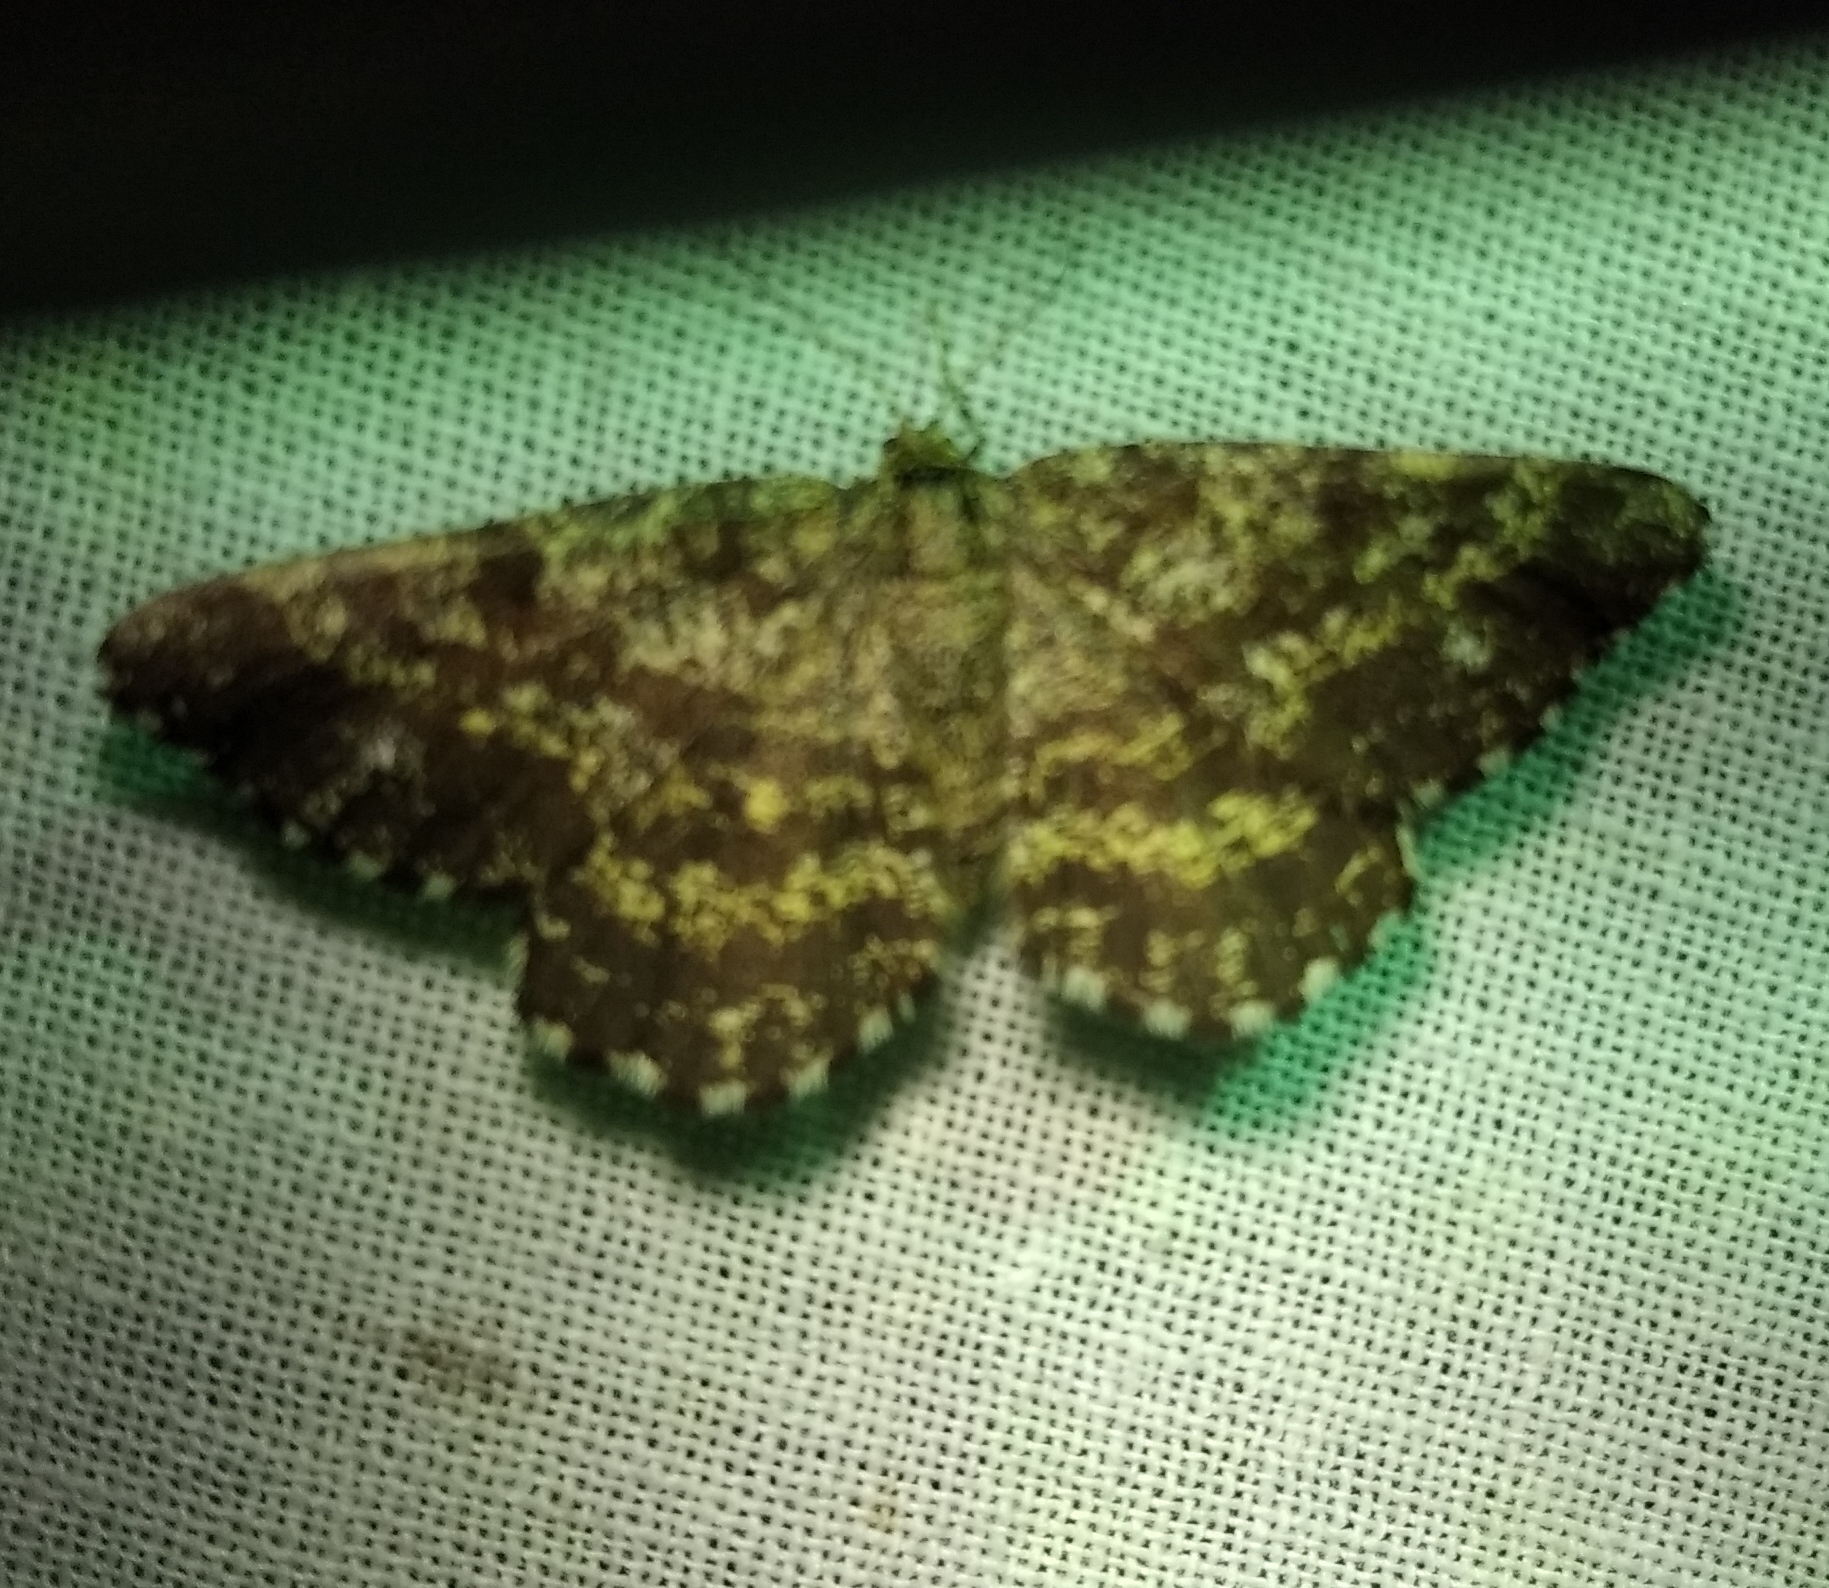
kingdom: Animalia
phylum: Arthropoda
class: Insecta
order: Lepidoptera
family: Geometridae
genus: Ematurga
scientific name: Ematurga atomaria
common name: Common heath
